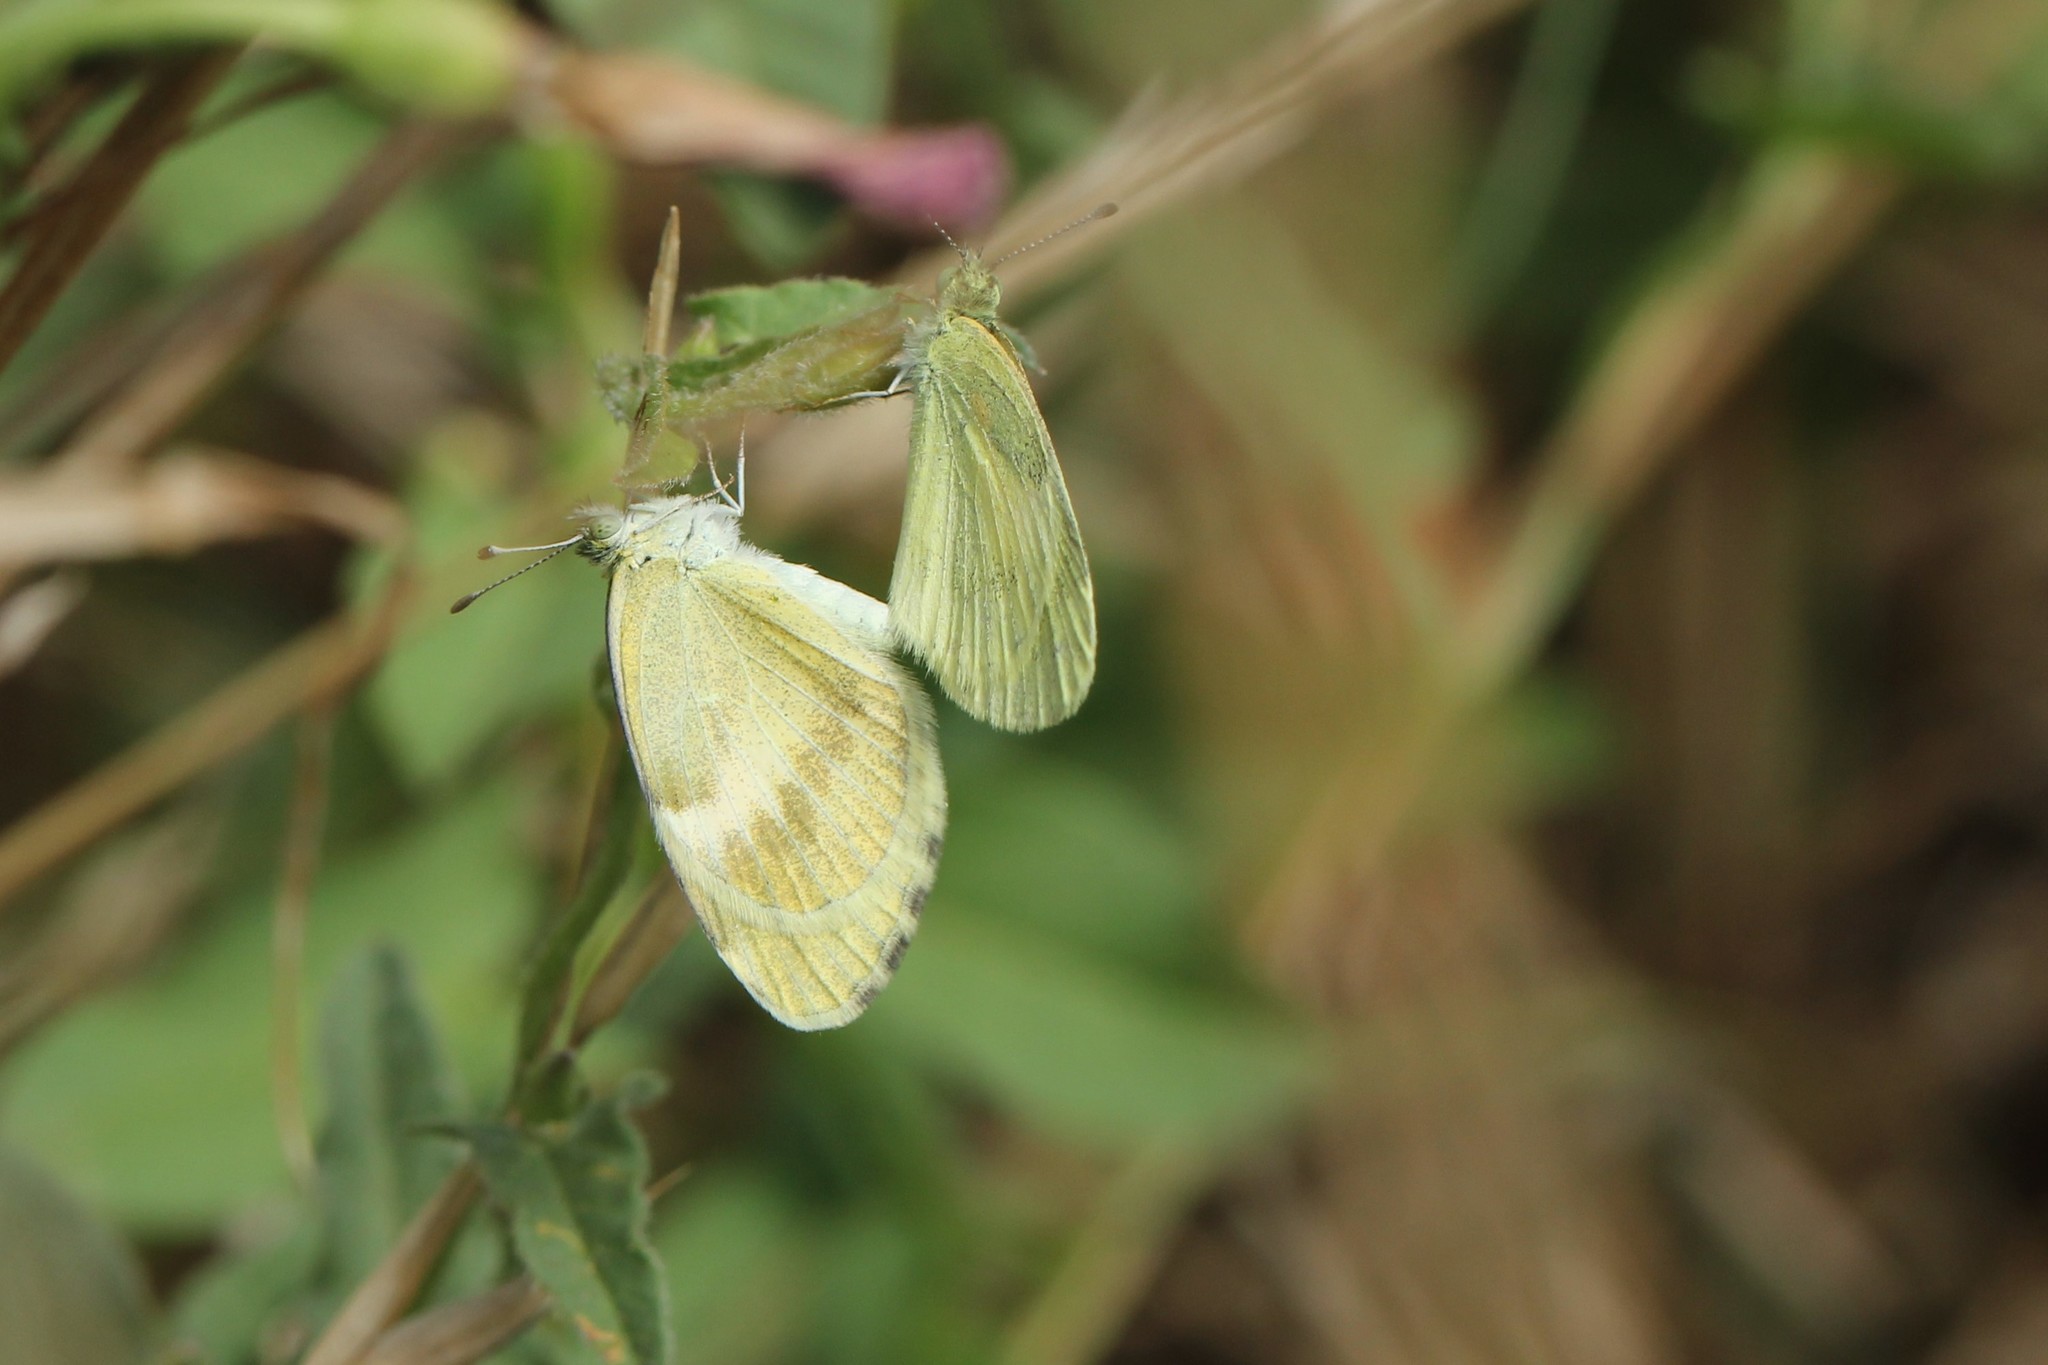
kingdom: Animalia
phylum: Arthropoda
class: Insecta
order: Lepidoptera
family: Pieridae
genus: Nathalis
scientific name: Nathalis iole
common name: Dainty sulphur
